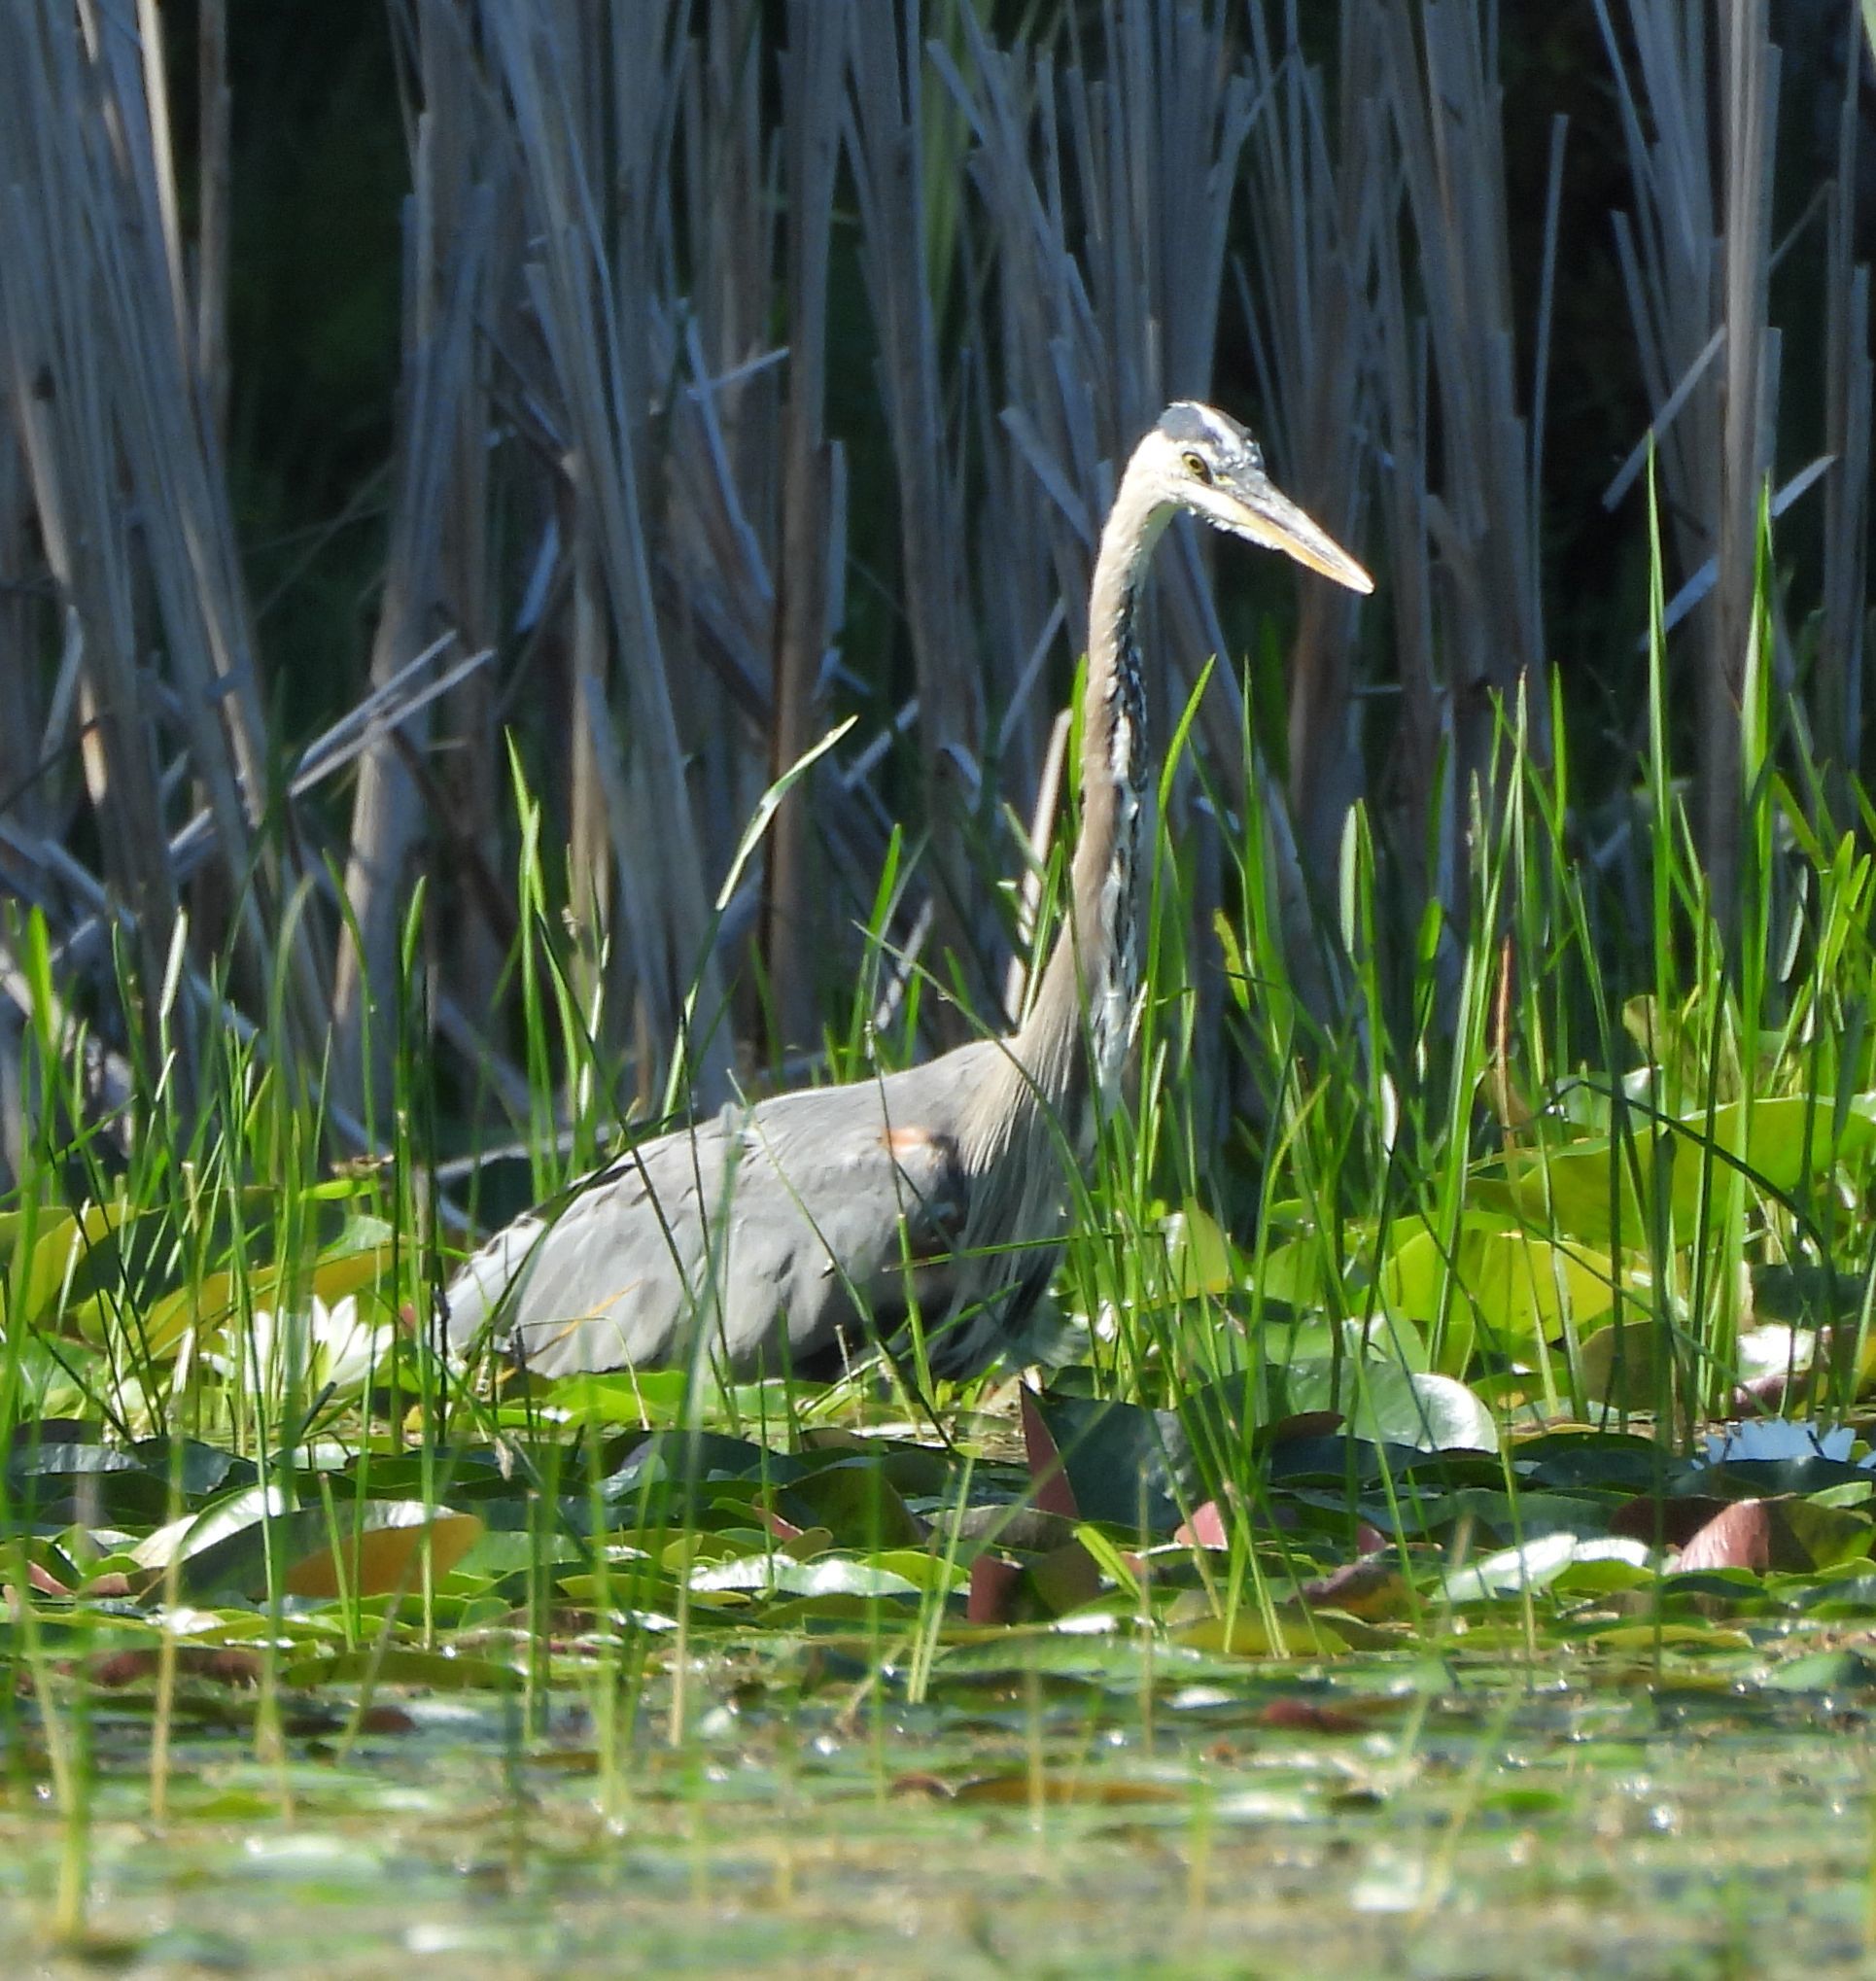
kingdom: Animalia
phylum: Chordata
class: Aves
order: Pelecaniformes
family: Ardeidae
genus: Ardea
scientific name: Ardea herodias
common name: Great blue heron
